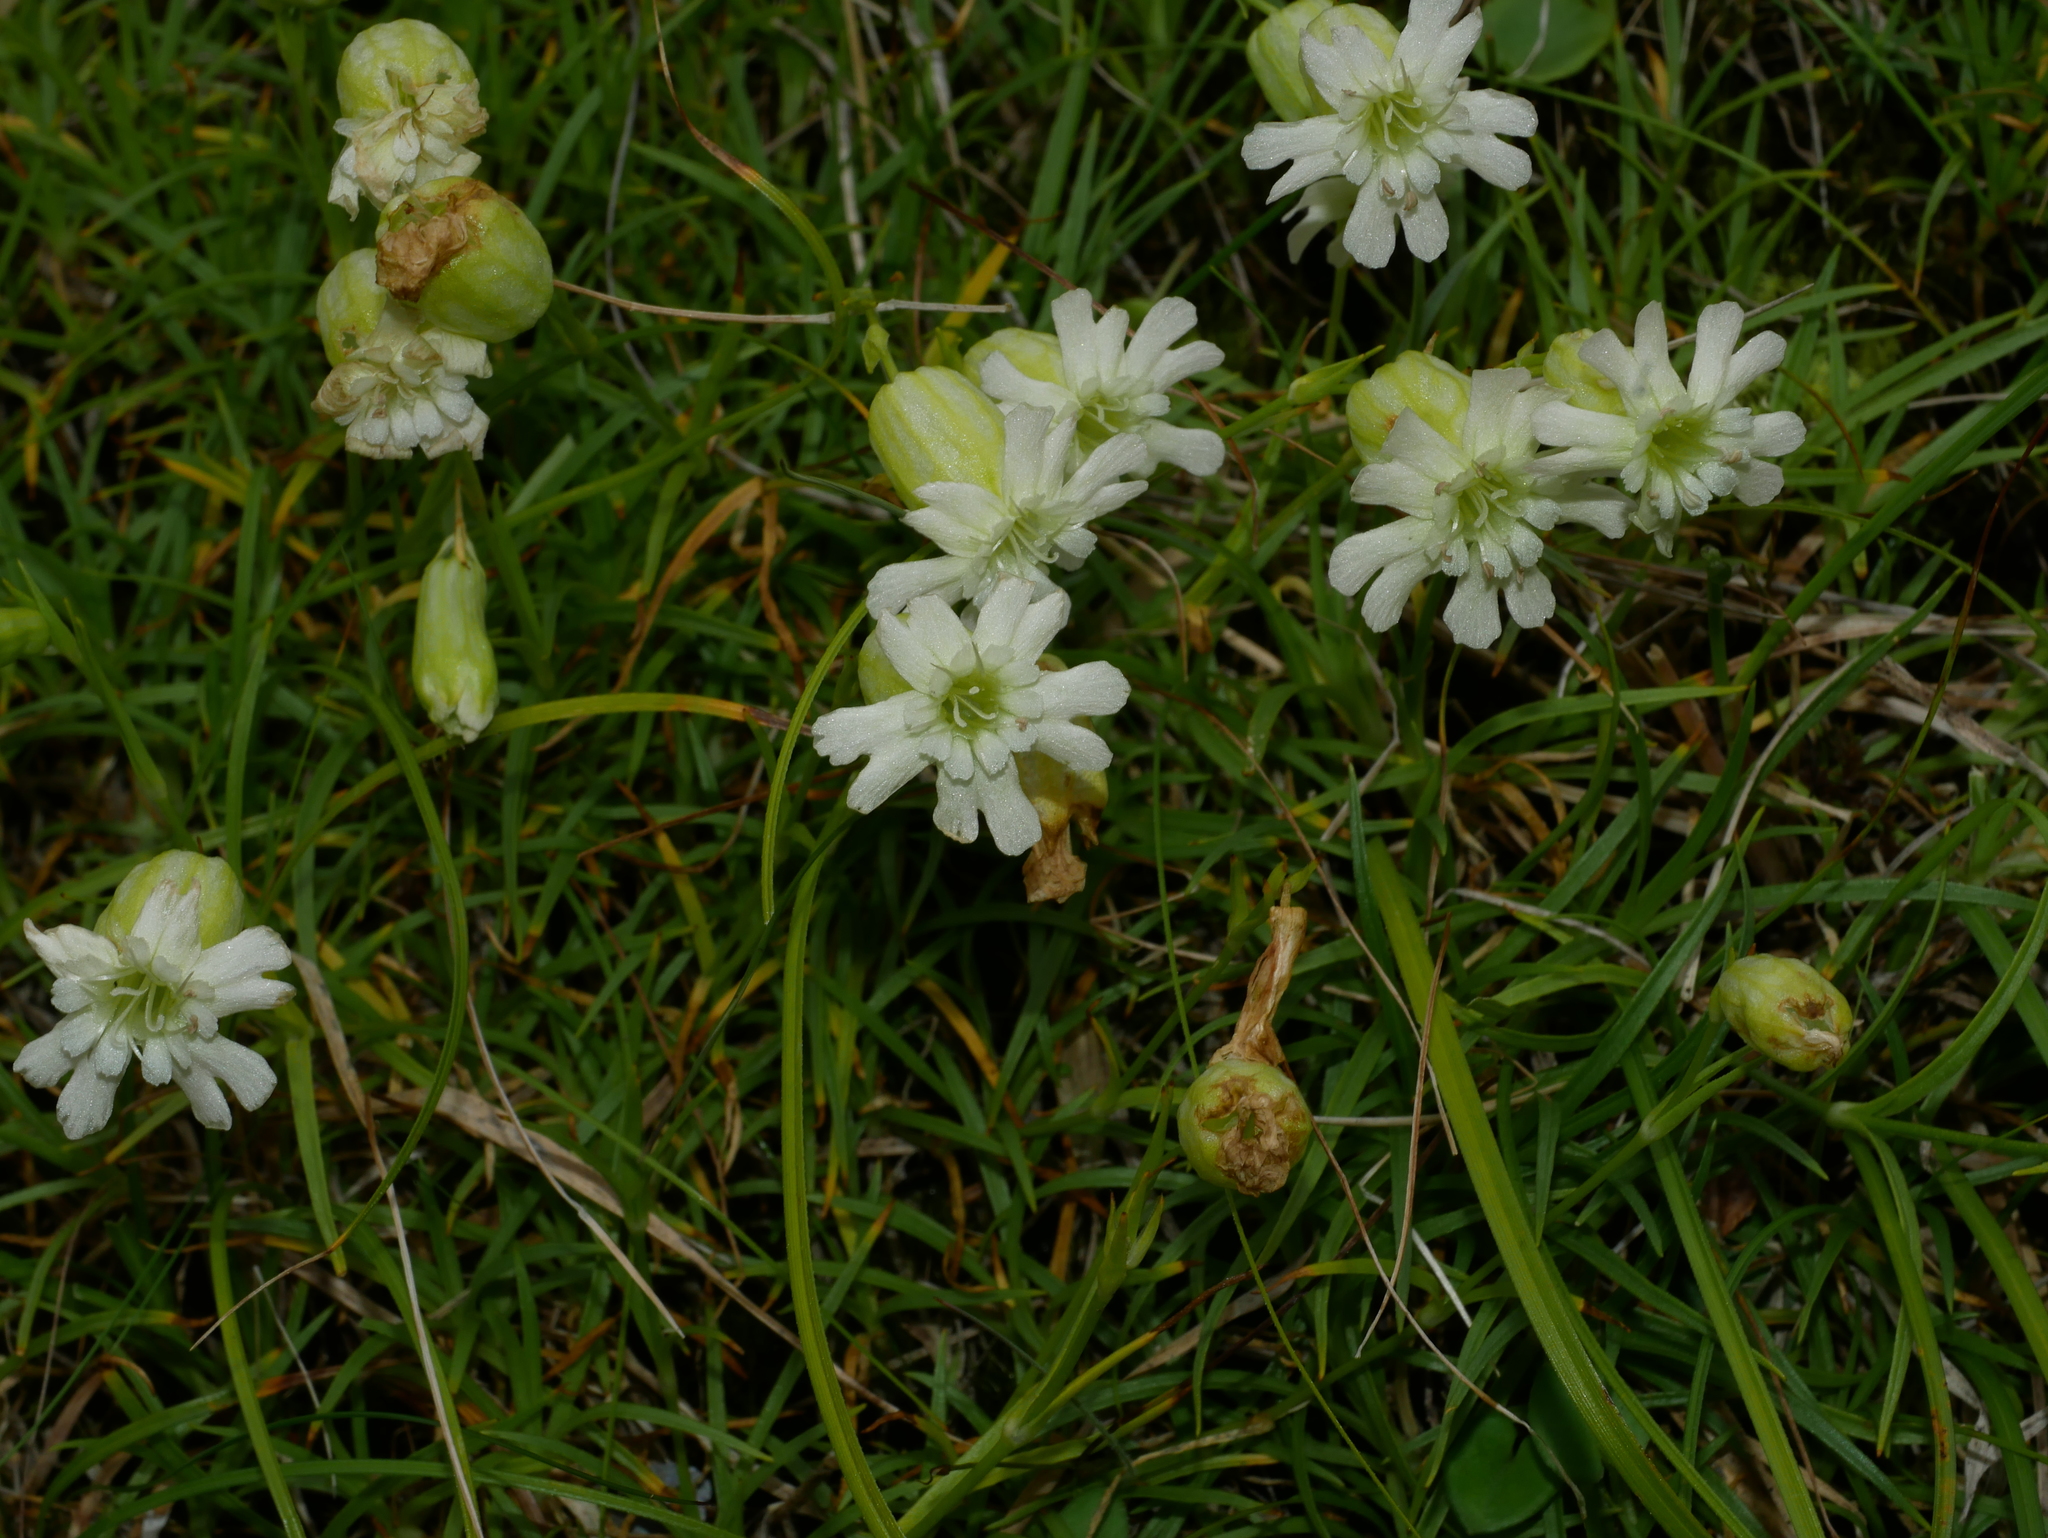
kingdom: Plantae
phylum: Tracheophyta
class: Magnoliopsida
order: Caryophyllales
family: Caryophyllaceae
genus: Silene
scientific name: Silene morrisonmontana
